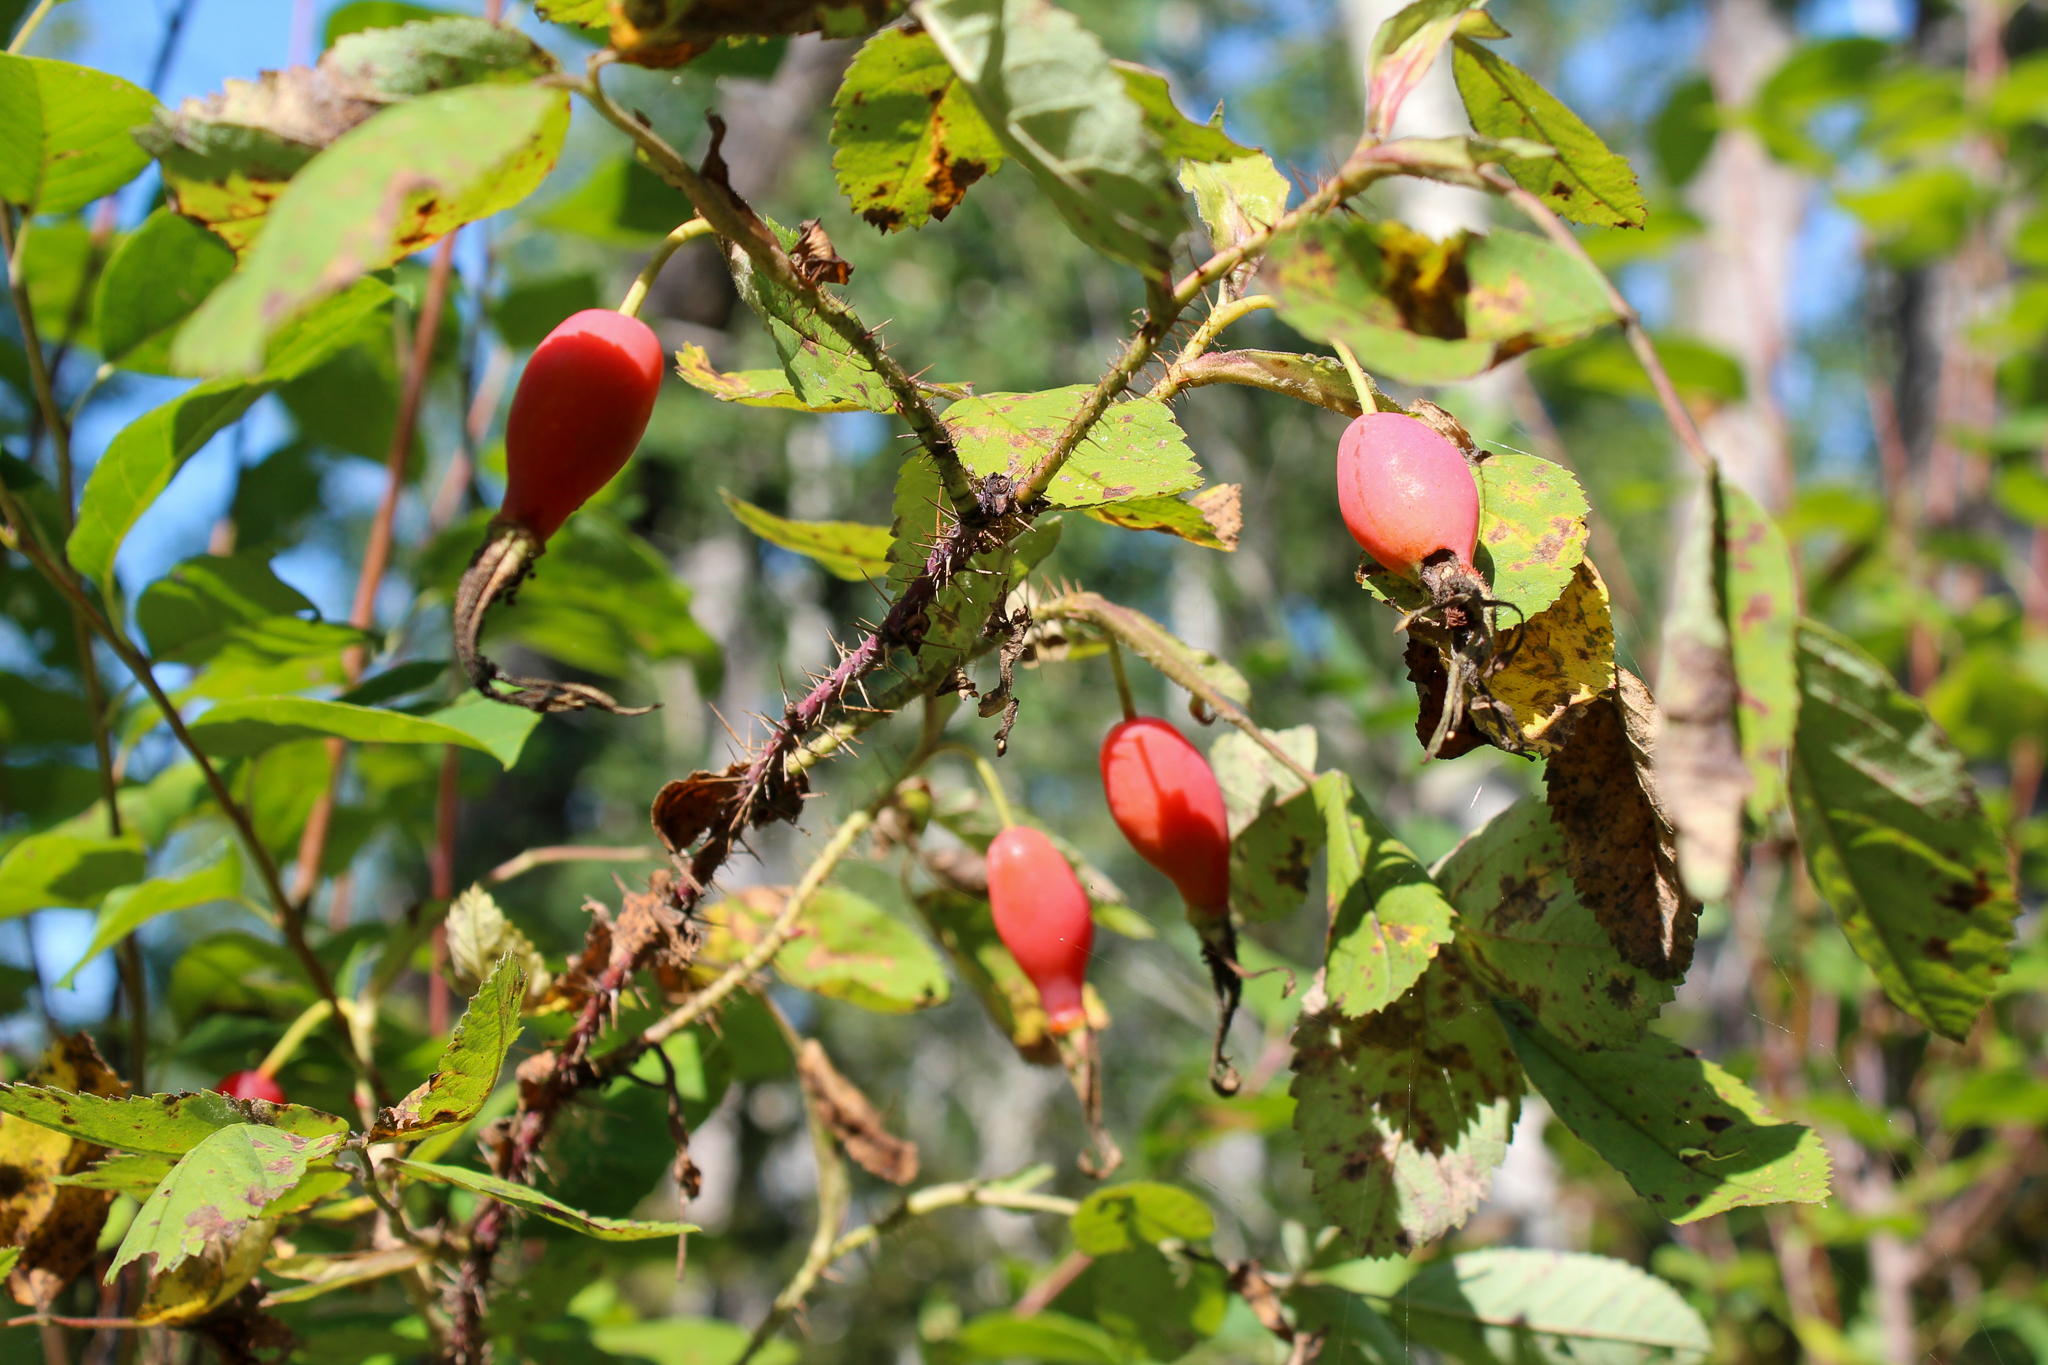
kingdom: Plantae
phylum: Tracheophyta
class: Magnoliopsida
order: Rosales
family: Rosaceae
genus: Rosa
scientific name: Rosa acicularis
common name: Prickly rose
